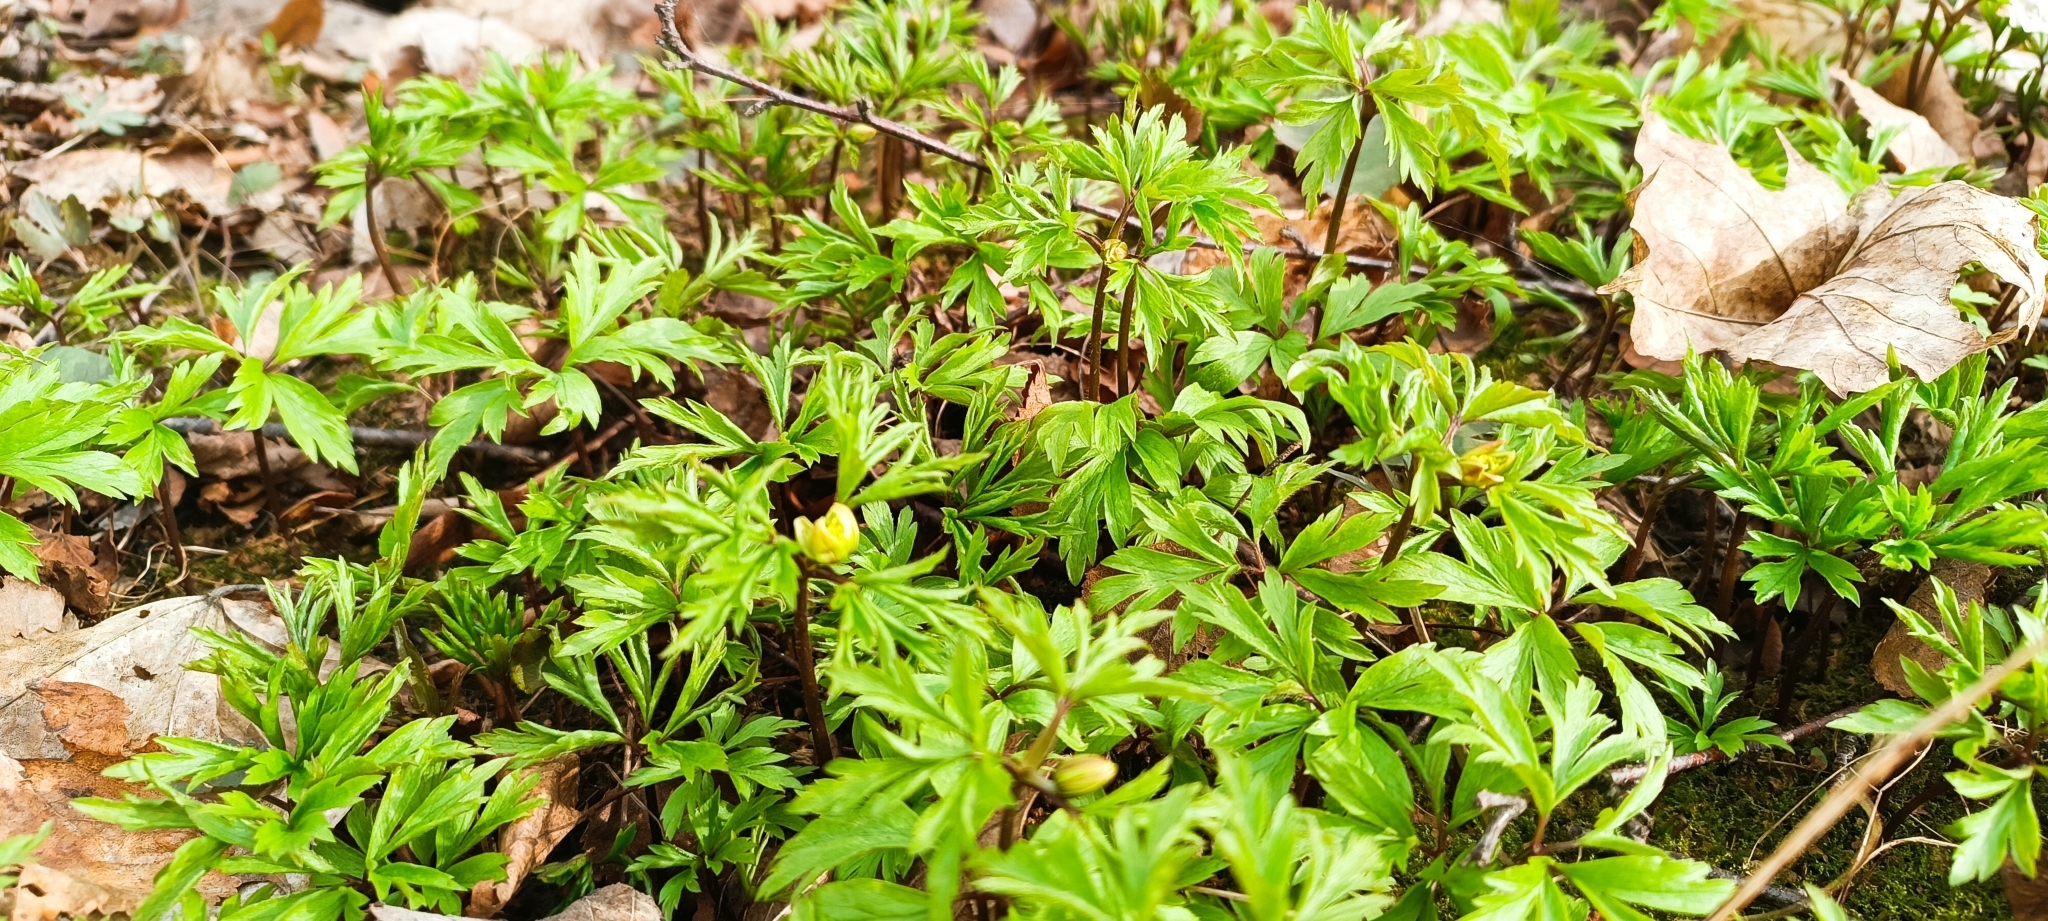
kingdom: Plantae
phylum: Tracheophyta
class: Magnoliopsida
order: Ranunculales
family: Ranunculaceae
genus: Anemone
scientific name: Anemone nemorosa
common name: Wood anemone
